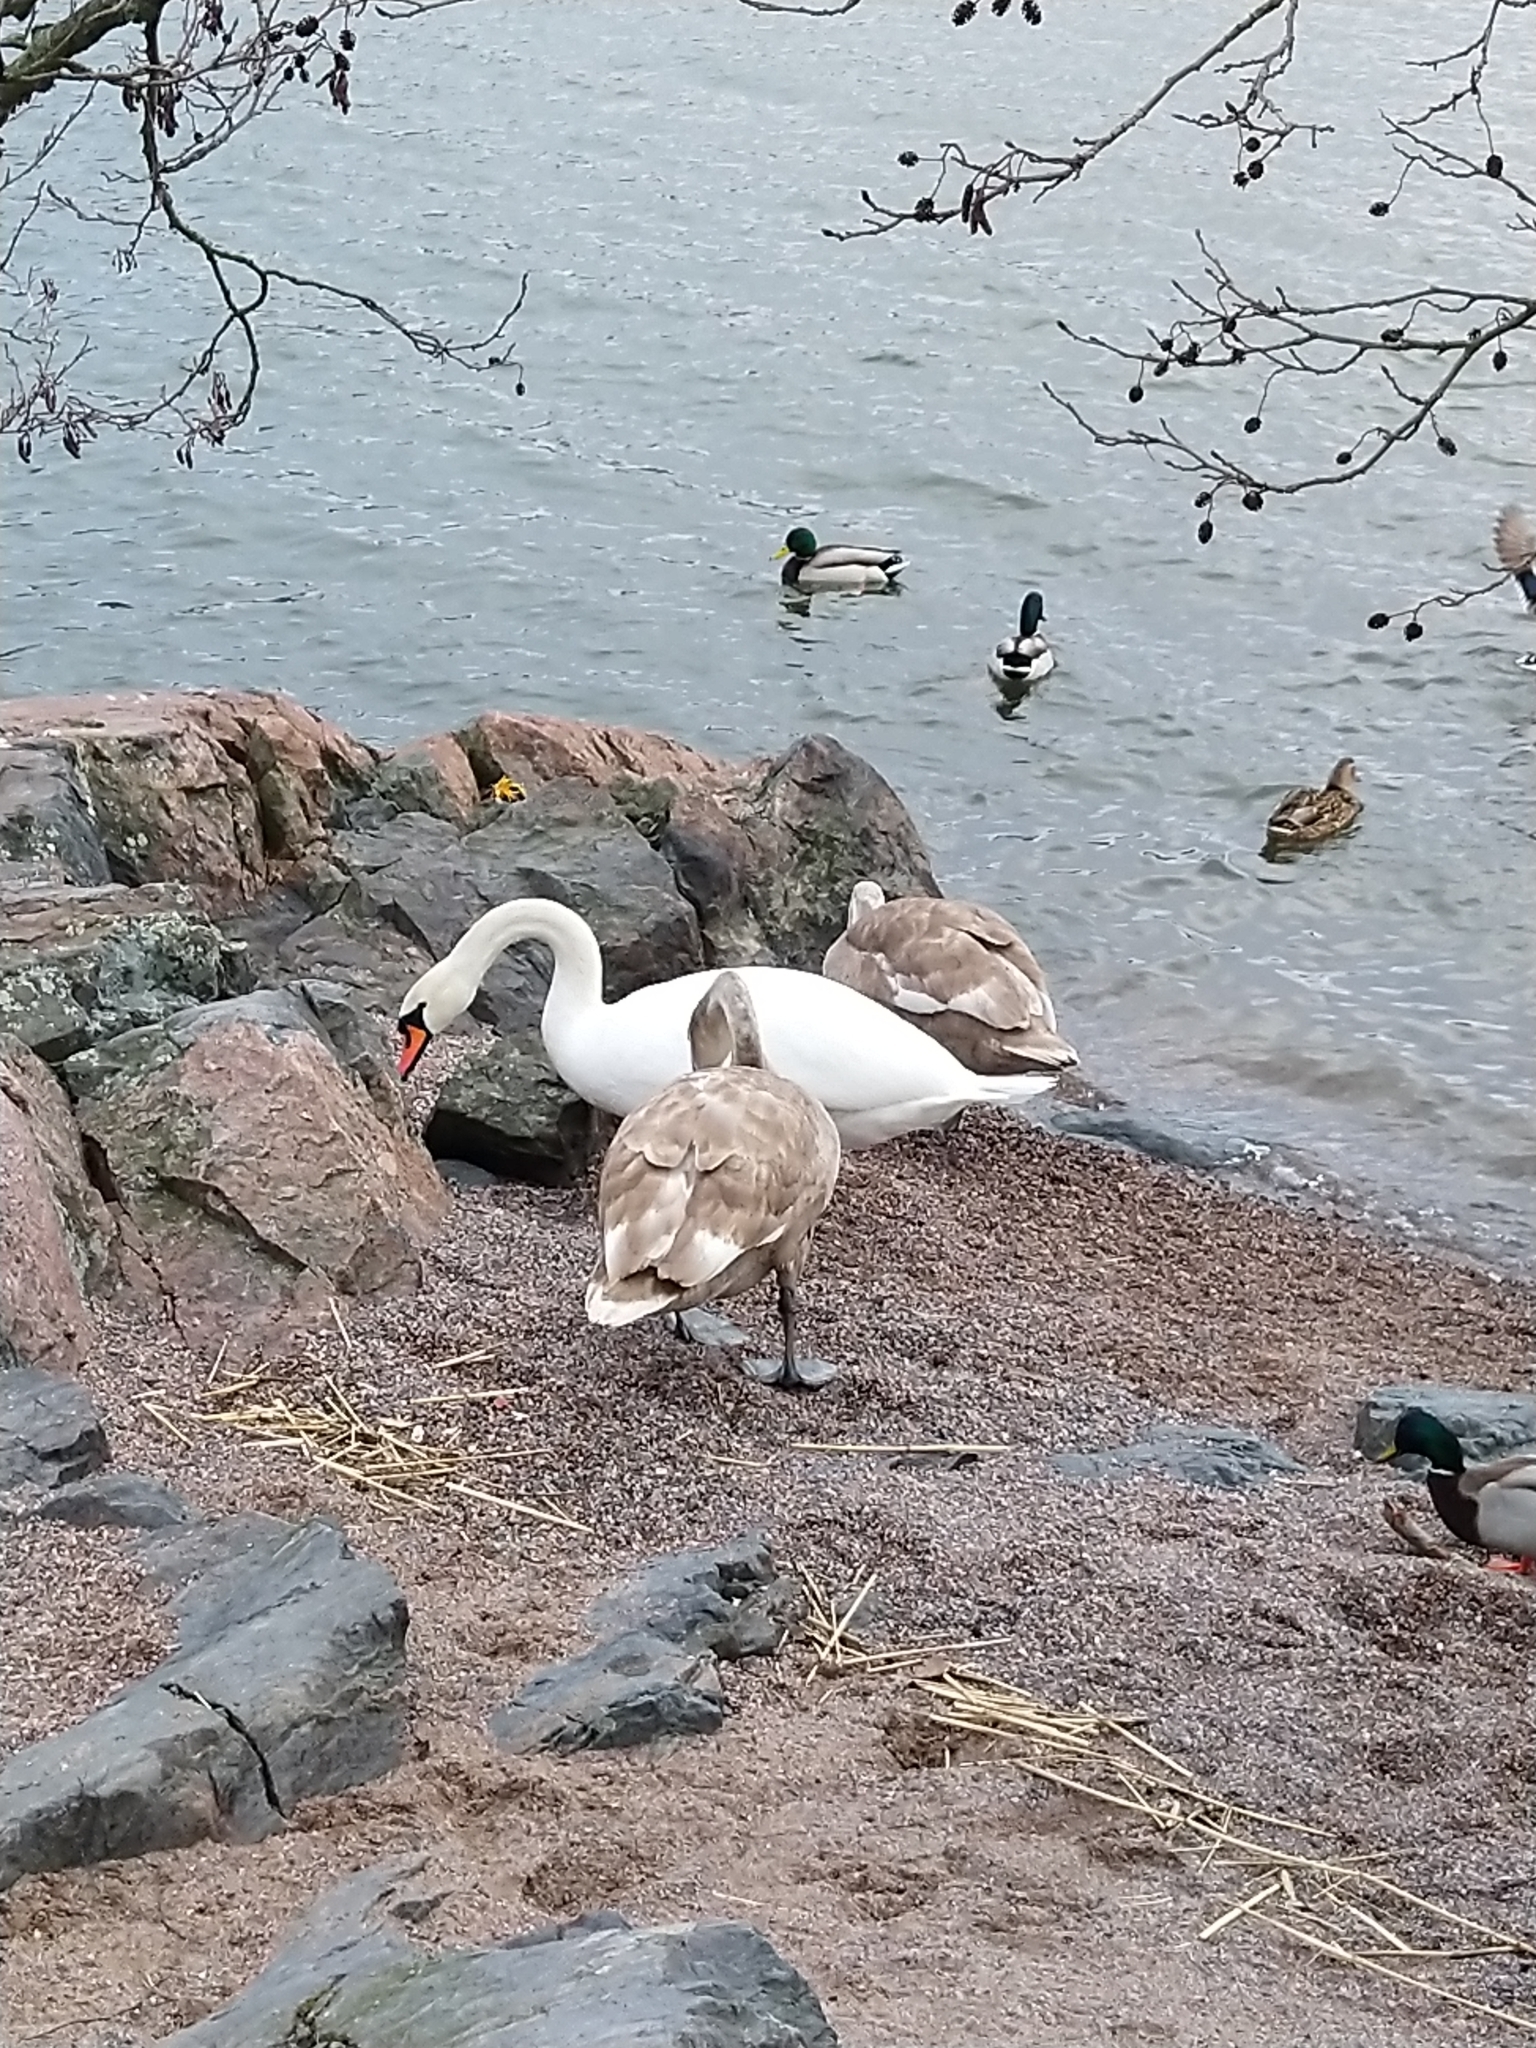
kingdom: Animalia
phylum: Chordata
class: Aves
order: Anseriformes
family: Anatidae
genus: Cygnus
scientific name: Cygnus olor
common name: Mute swan
